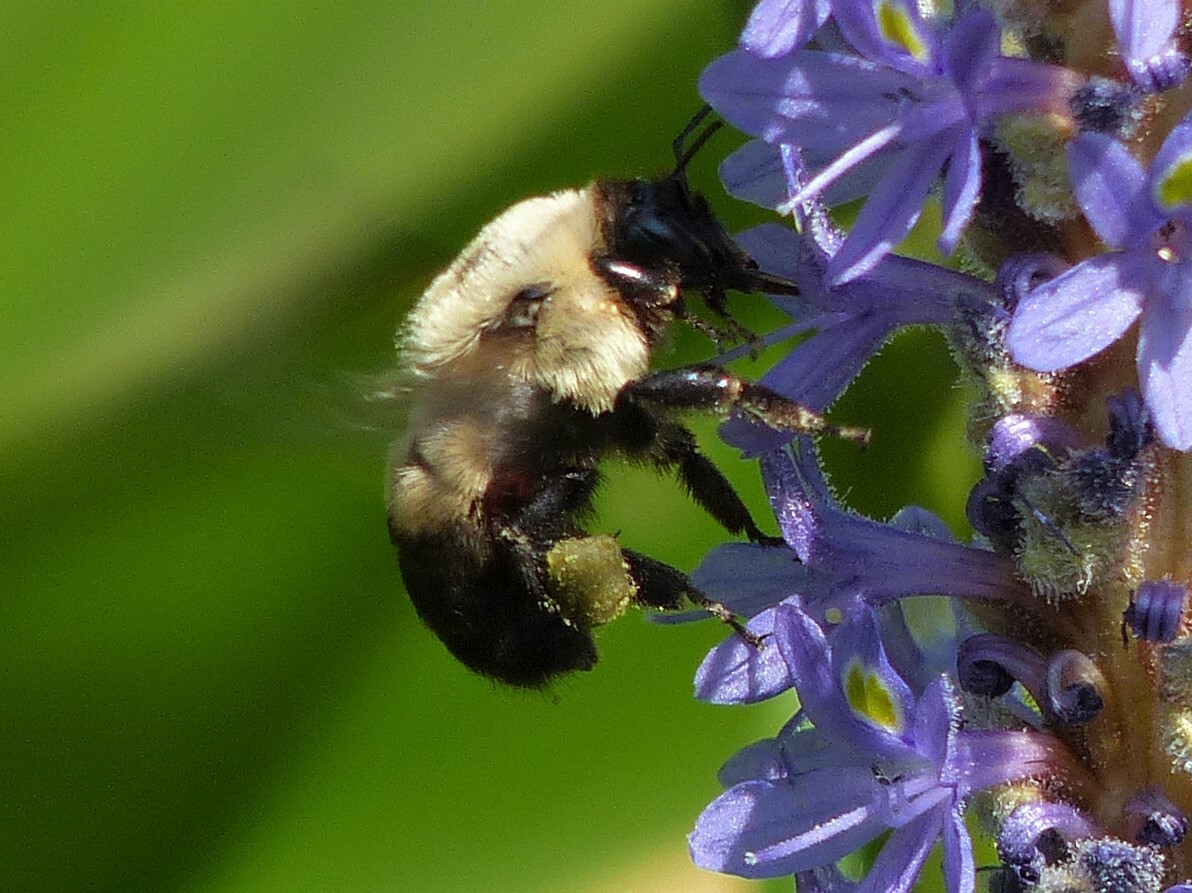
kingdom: Animalia
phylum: Arthropoda
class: Insecta
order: Hymenoptera
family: Apidae
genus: Bombus
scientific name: Bombus griseocollis
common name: Brown-belted bumble bee
